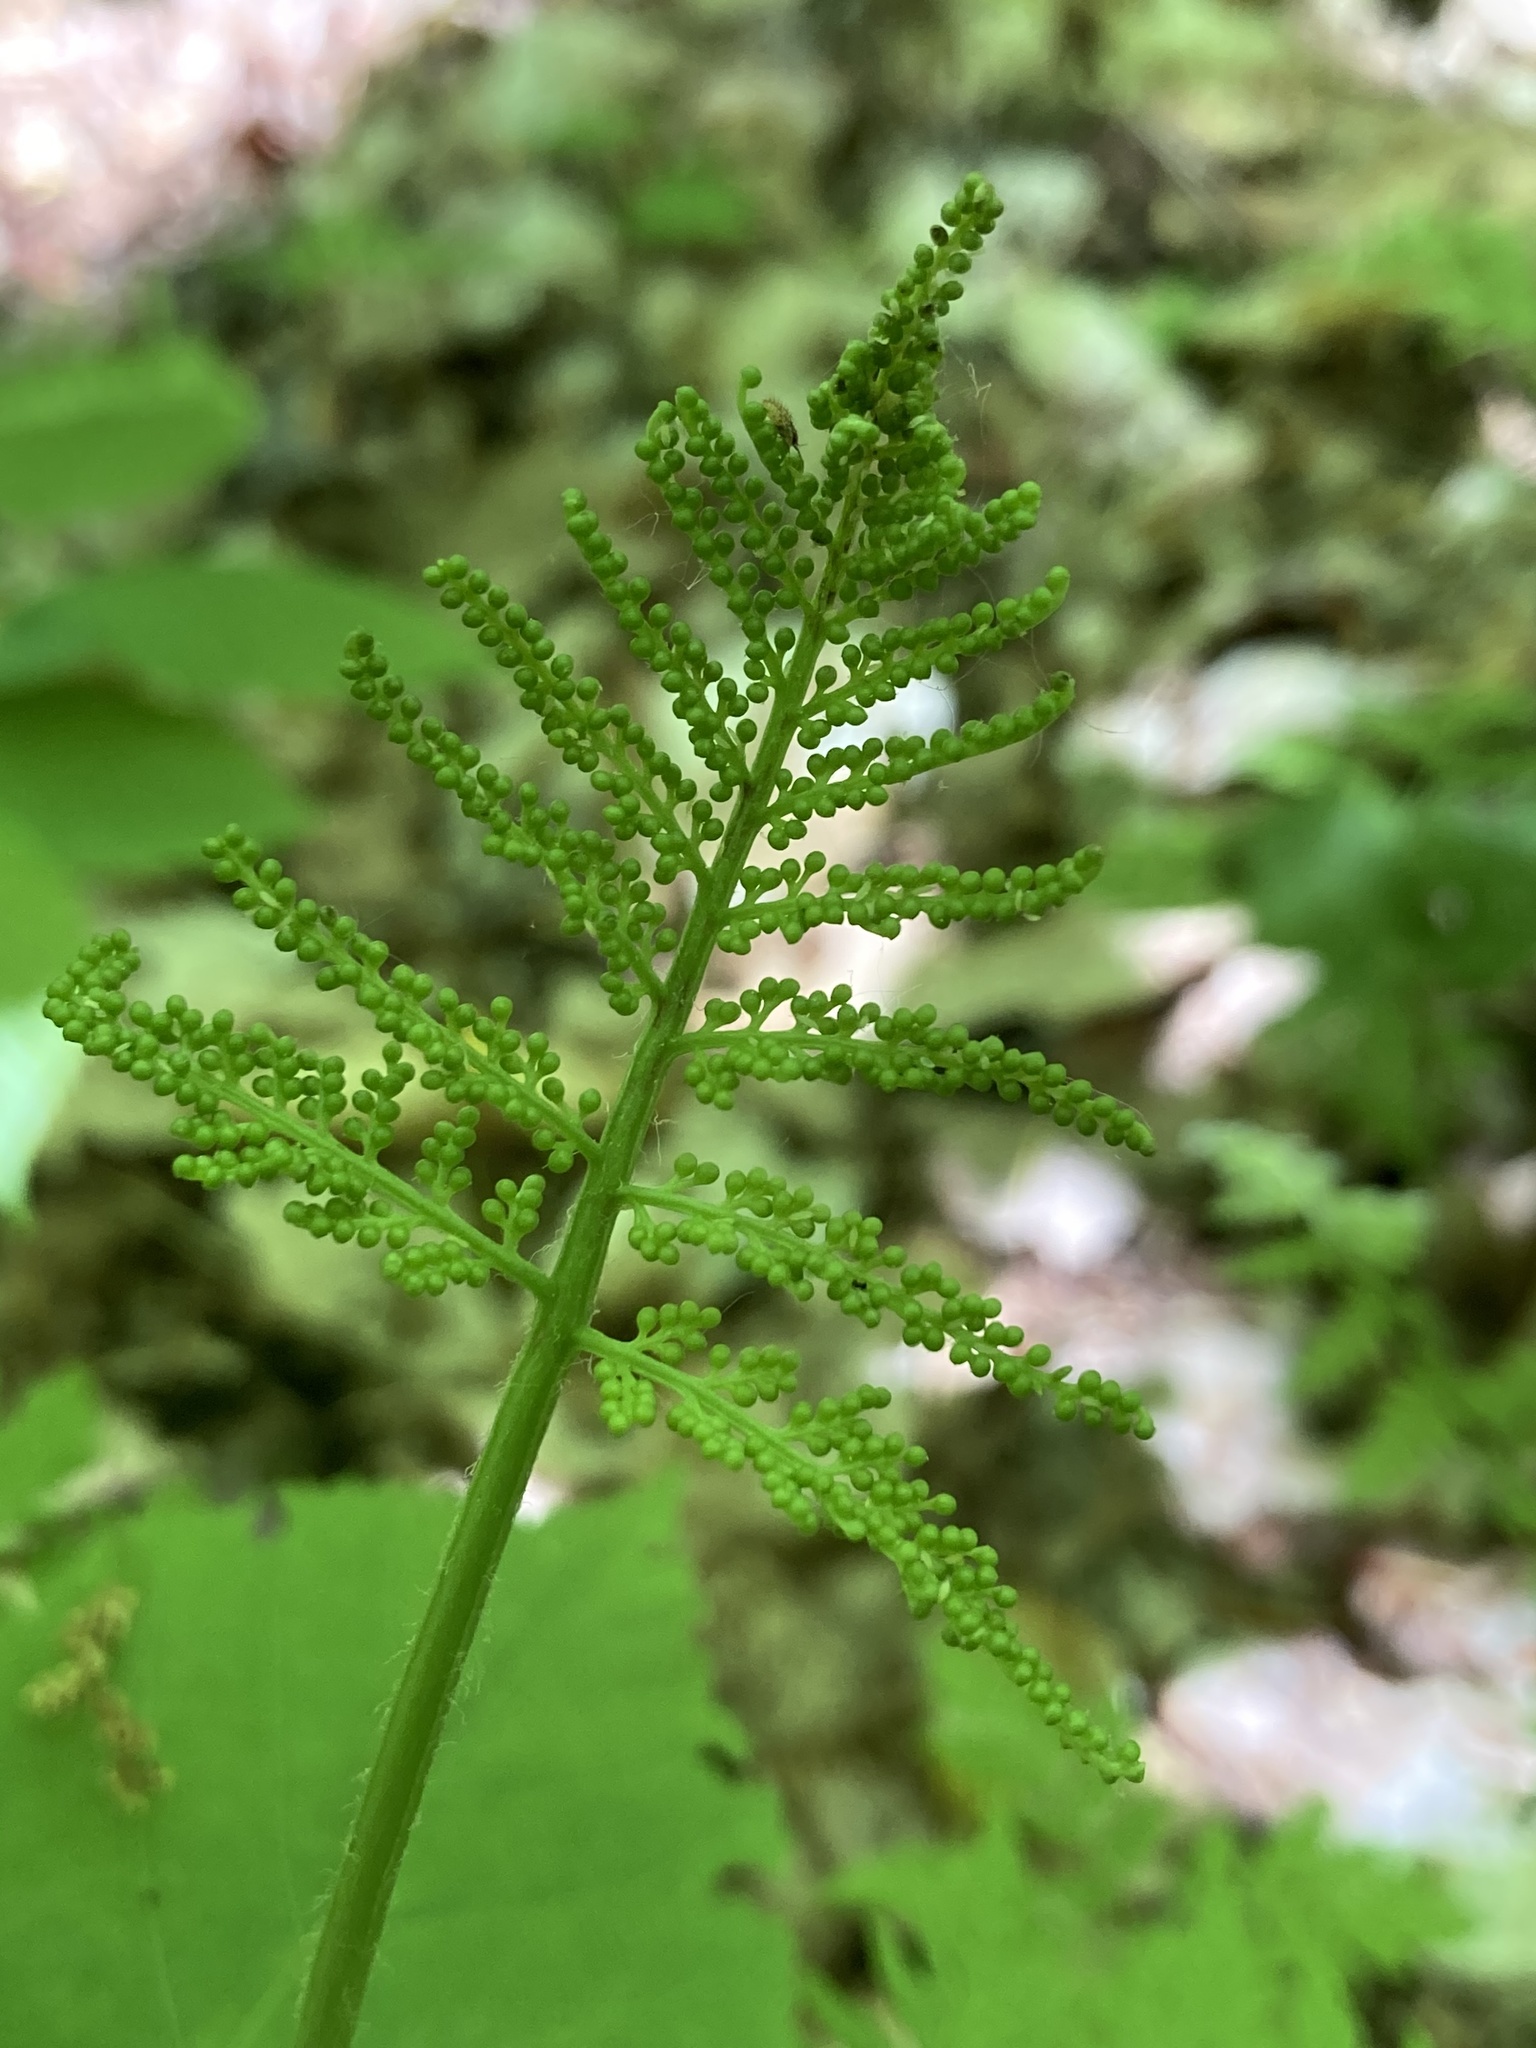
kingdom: Plantae
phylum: Tracheophyta
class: Polypodiopsida
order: Ophioglossales
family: Ophioglossaceae
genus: Botrypus
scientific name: Botrypus virginianus
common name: Common grapefern
